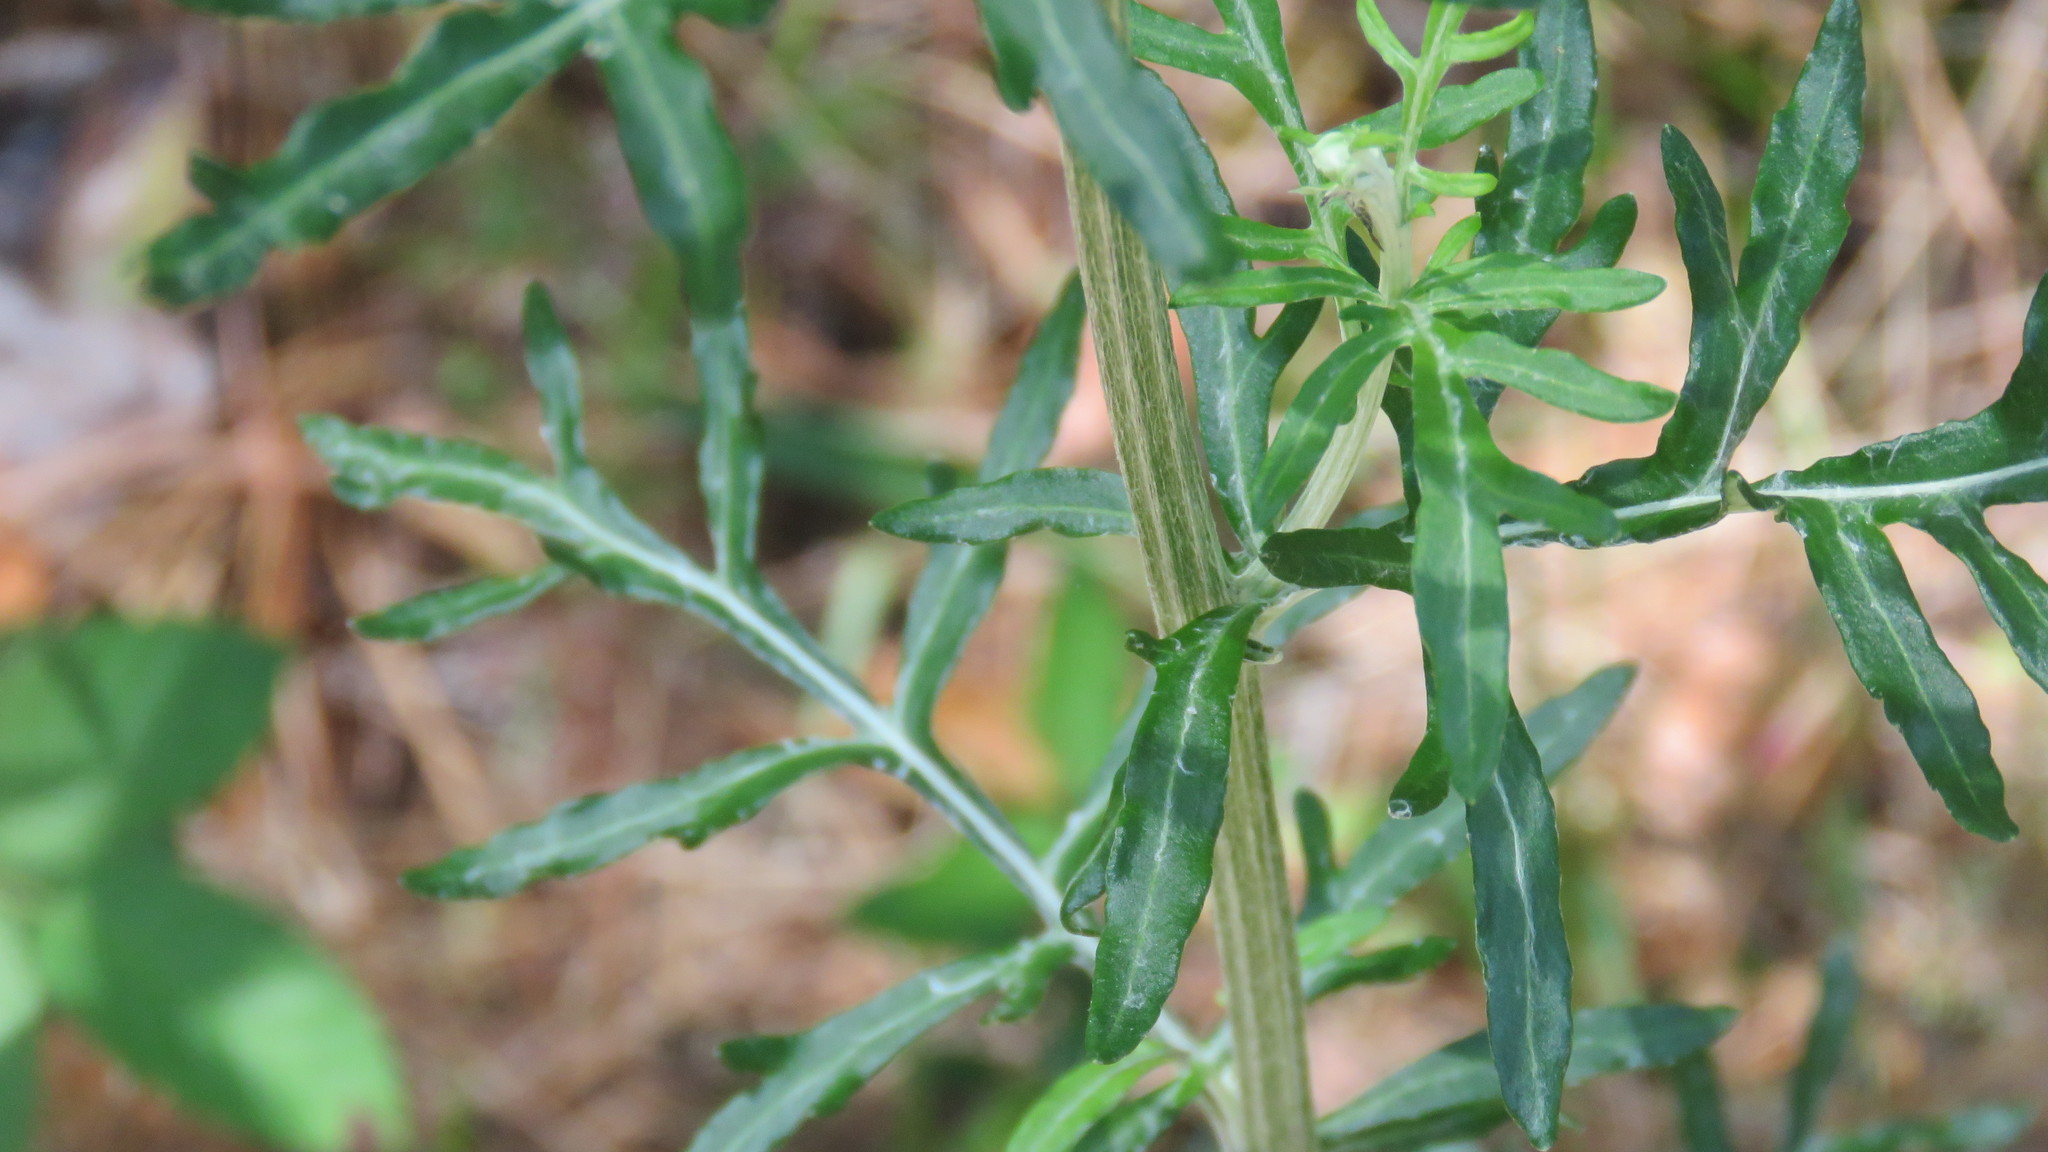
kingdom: Plantae
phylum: Tracheophyta
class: Magnoliopsida
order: Asterales
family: Asteraceae
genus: Hymenopappus
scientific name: Hymenopappus artemisiifolius
